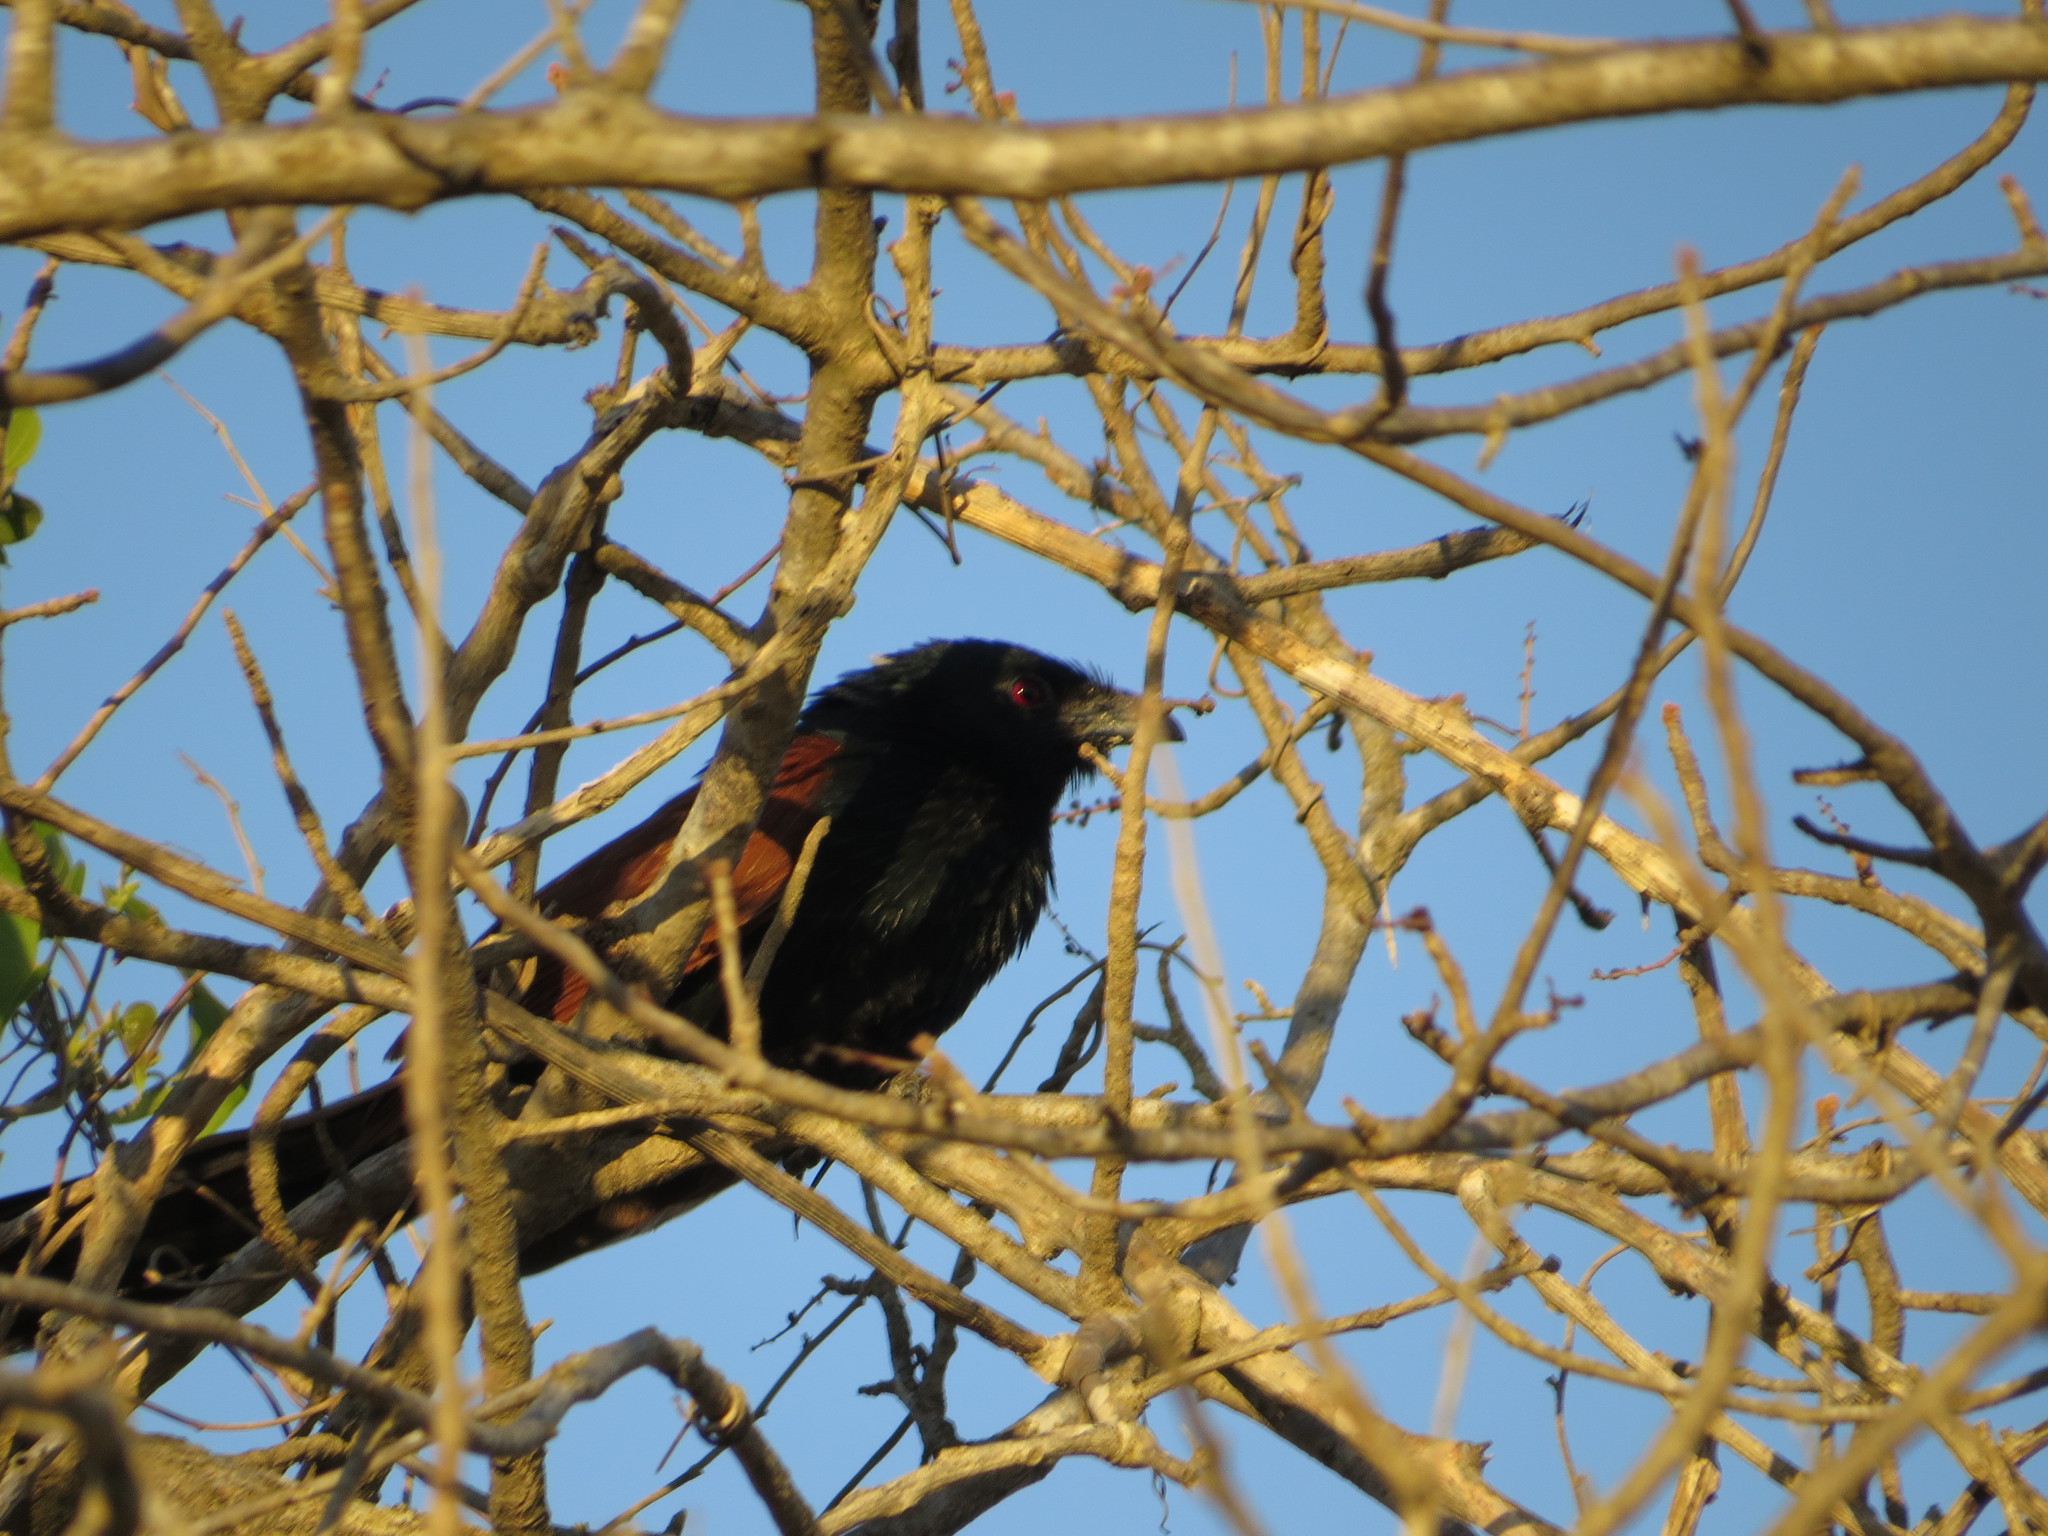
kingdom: Animalia
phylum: Chordata
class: Aves
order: Cuculiformes
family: Cuculidae
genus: Centropus
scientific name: Centropus toulou
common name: Malagasy coucal
